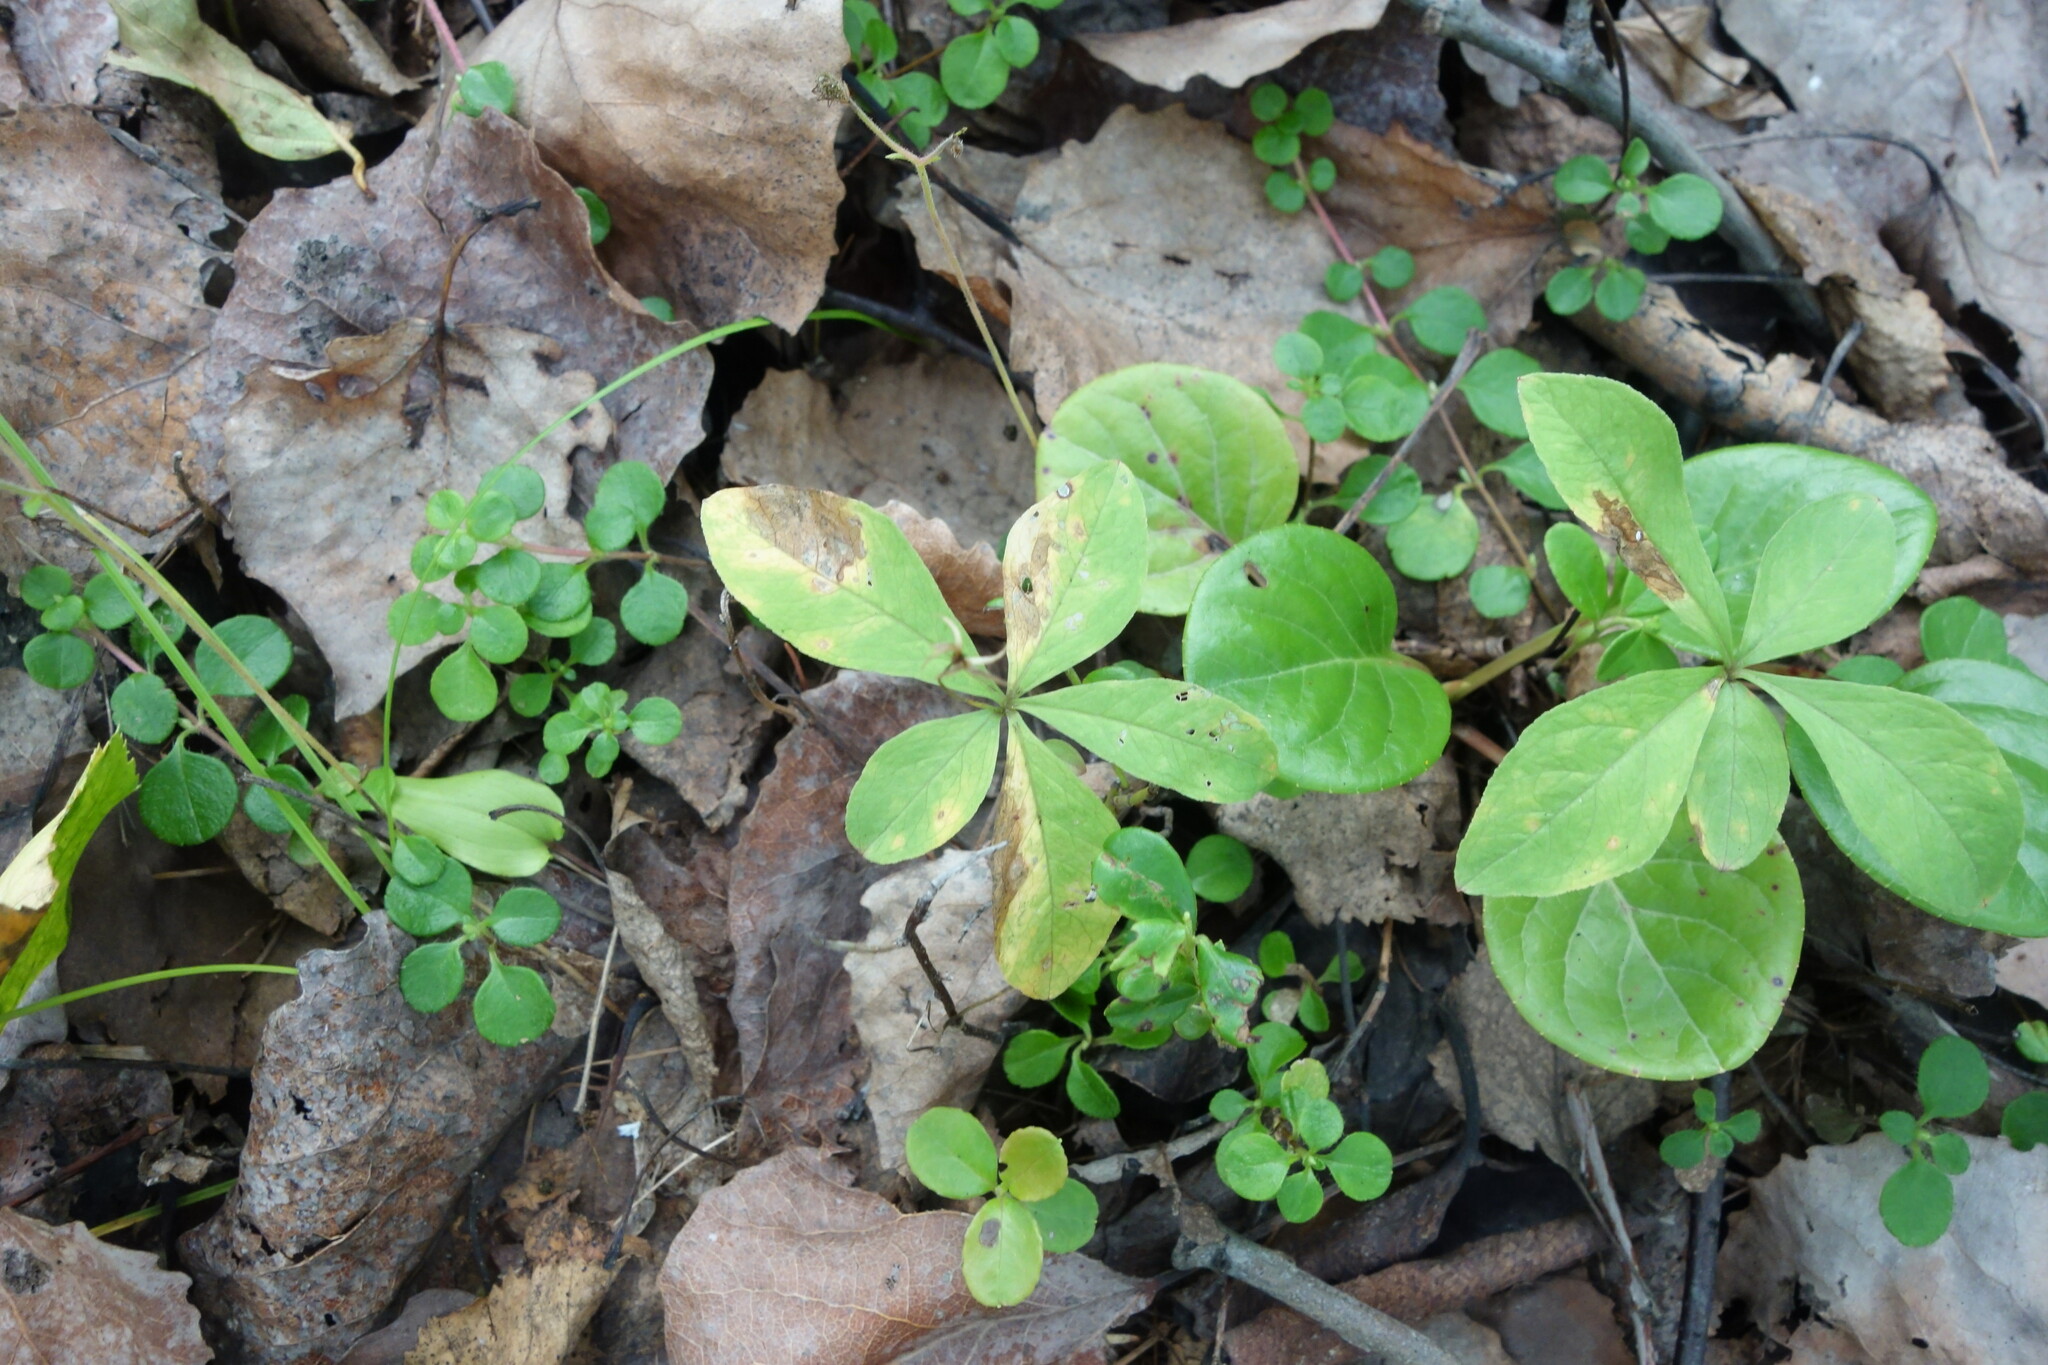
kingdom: Plantae
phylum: Tracheophyta
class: Magnoliopsida
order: Ericales
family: Primulaceae
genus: Lysimachia
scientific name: Lysimachia europaea
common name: Arctic starflower
